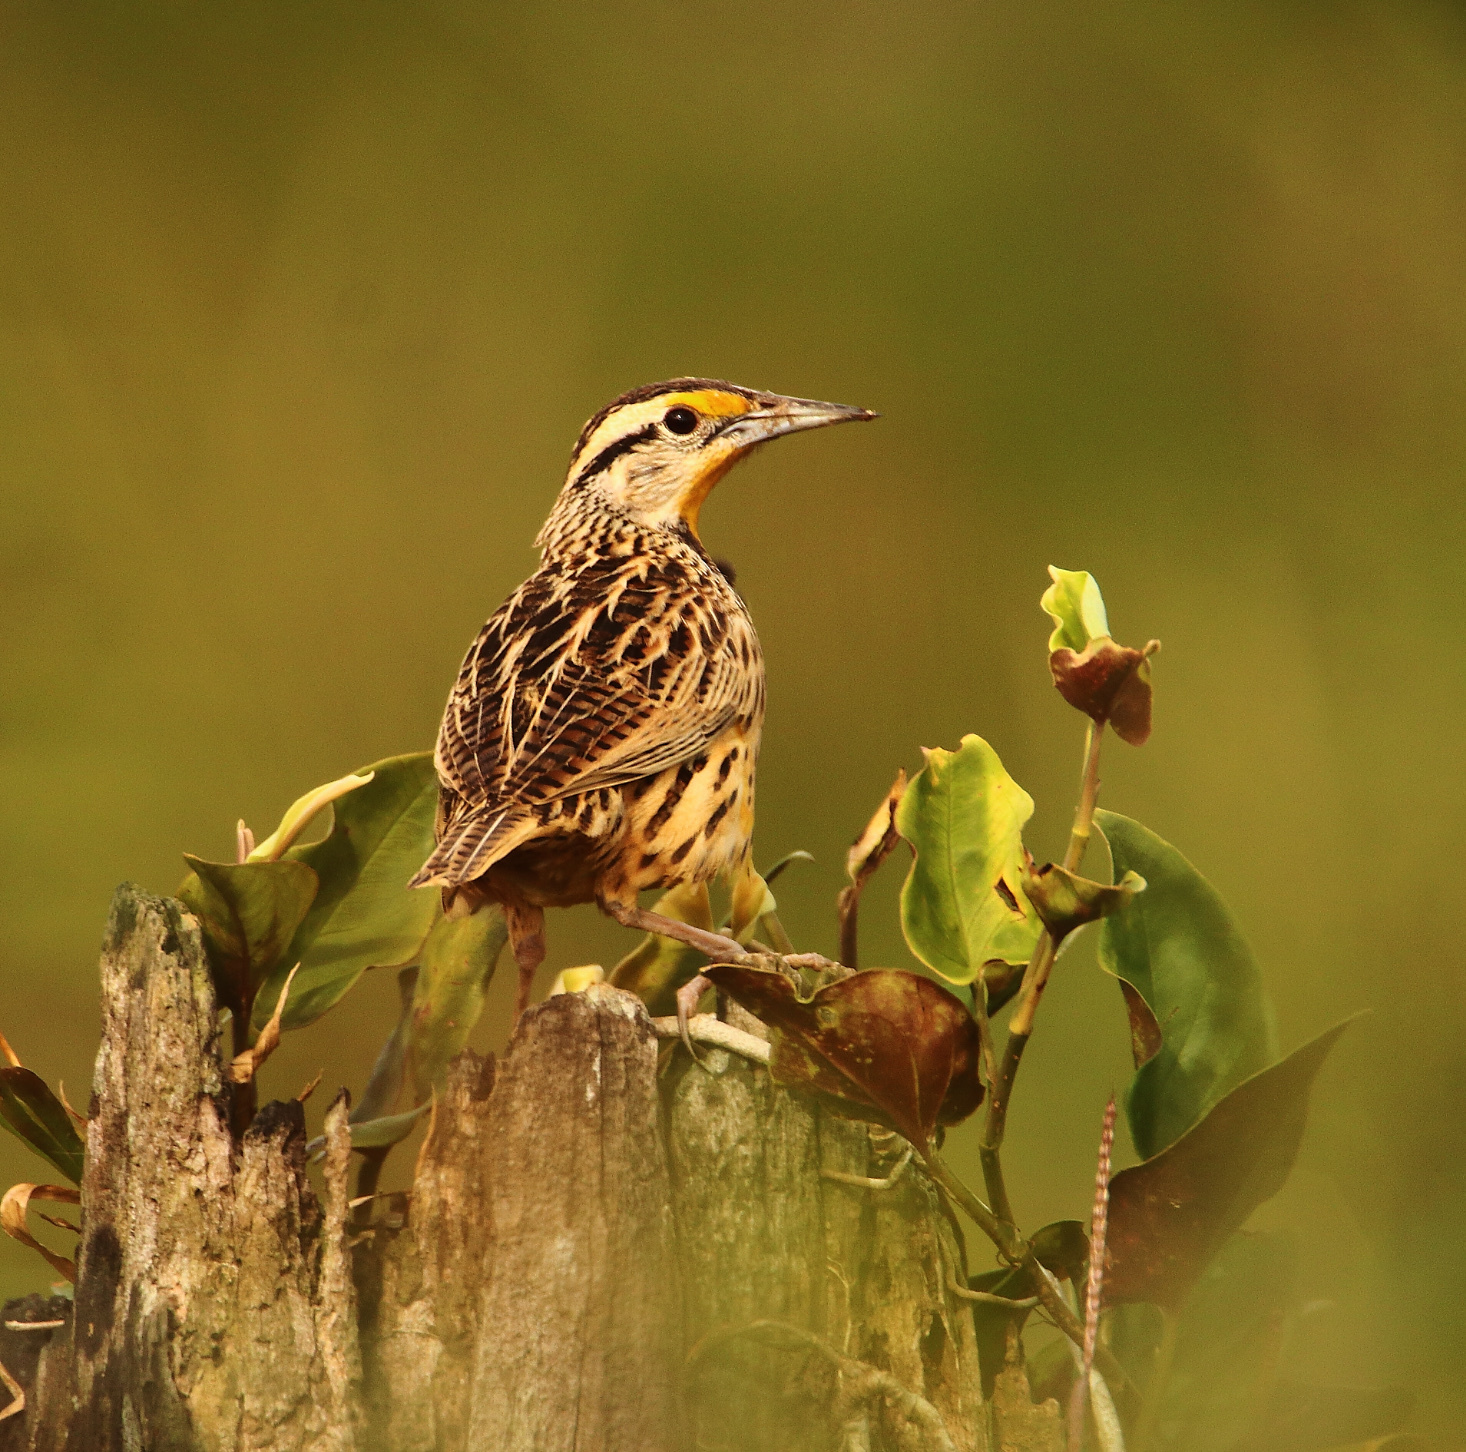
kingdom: Animalia
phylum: Chordata
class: Aves
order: Passeriformes
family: Icteridae
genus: Sturnella
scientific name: Sturnella magna
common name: Eastern meadowlark
